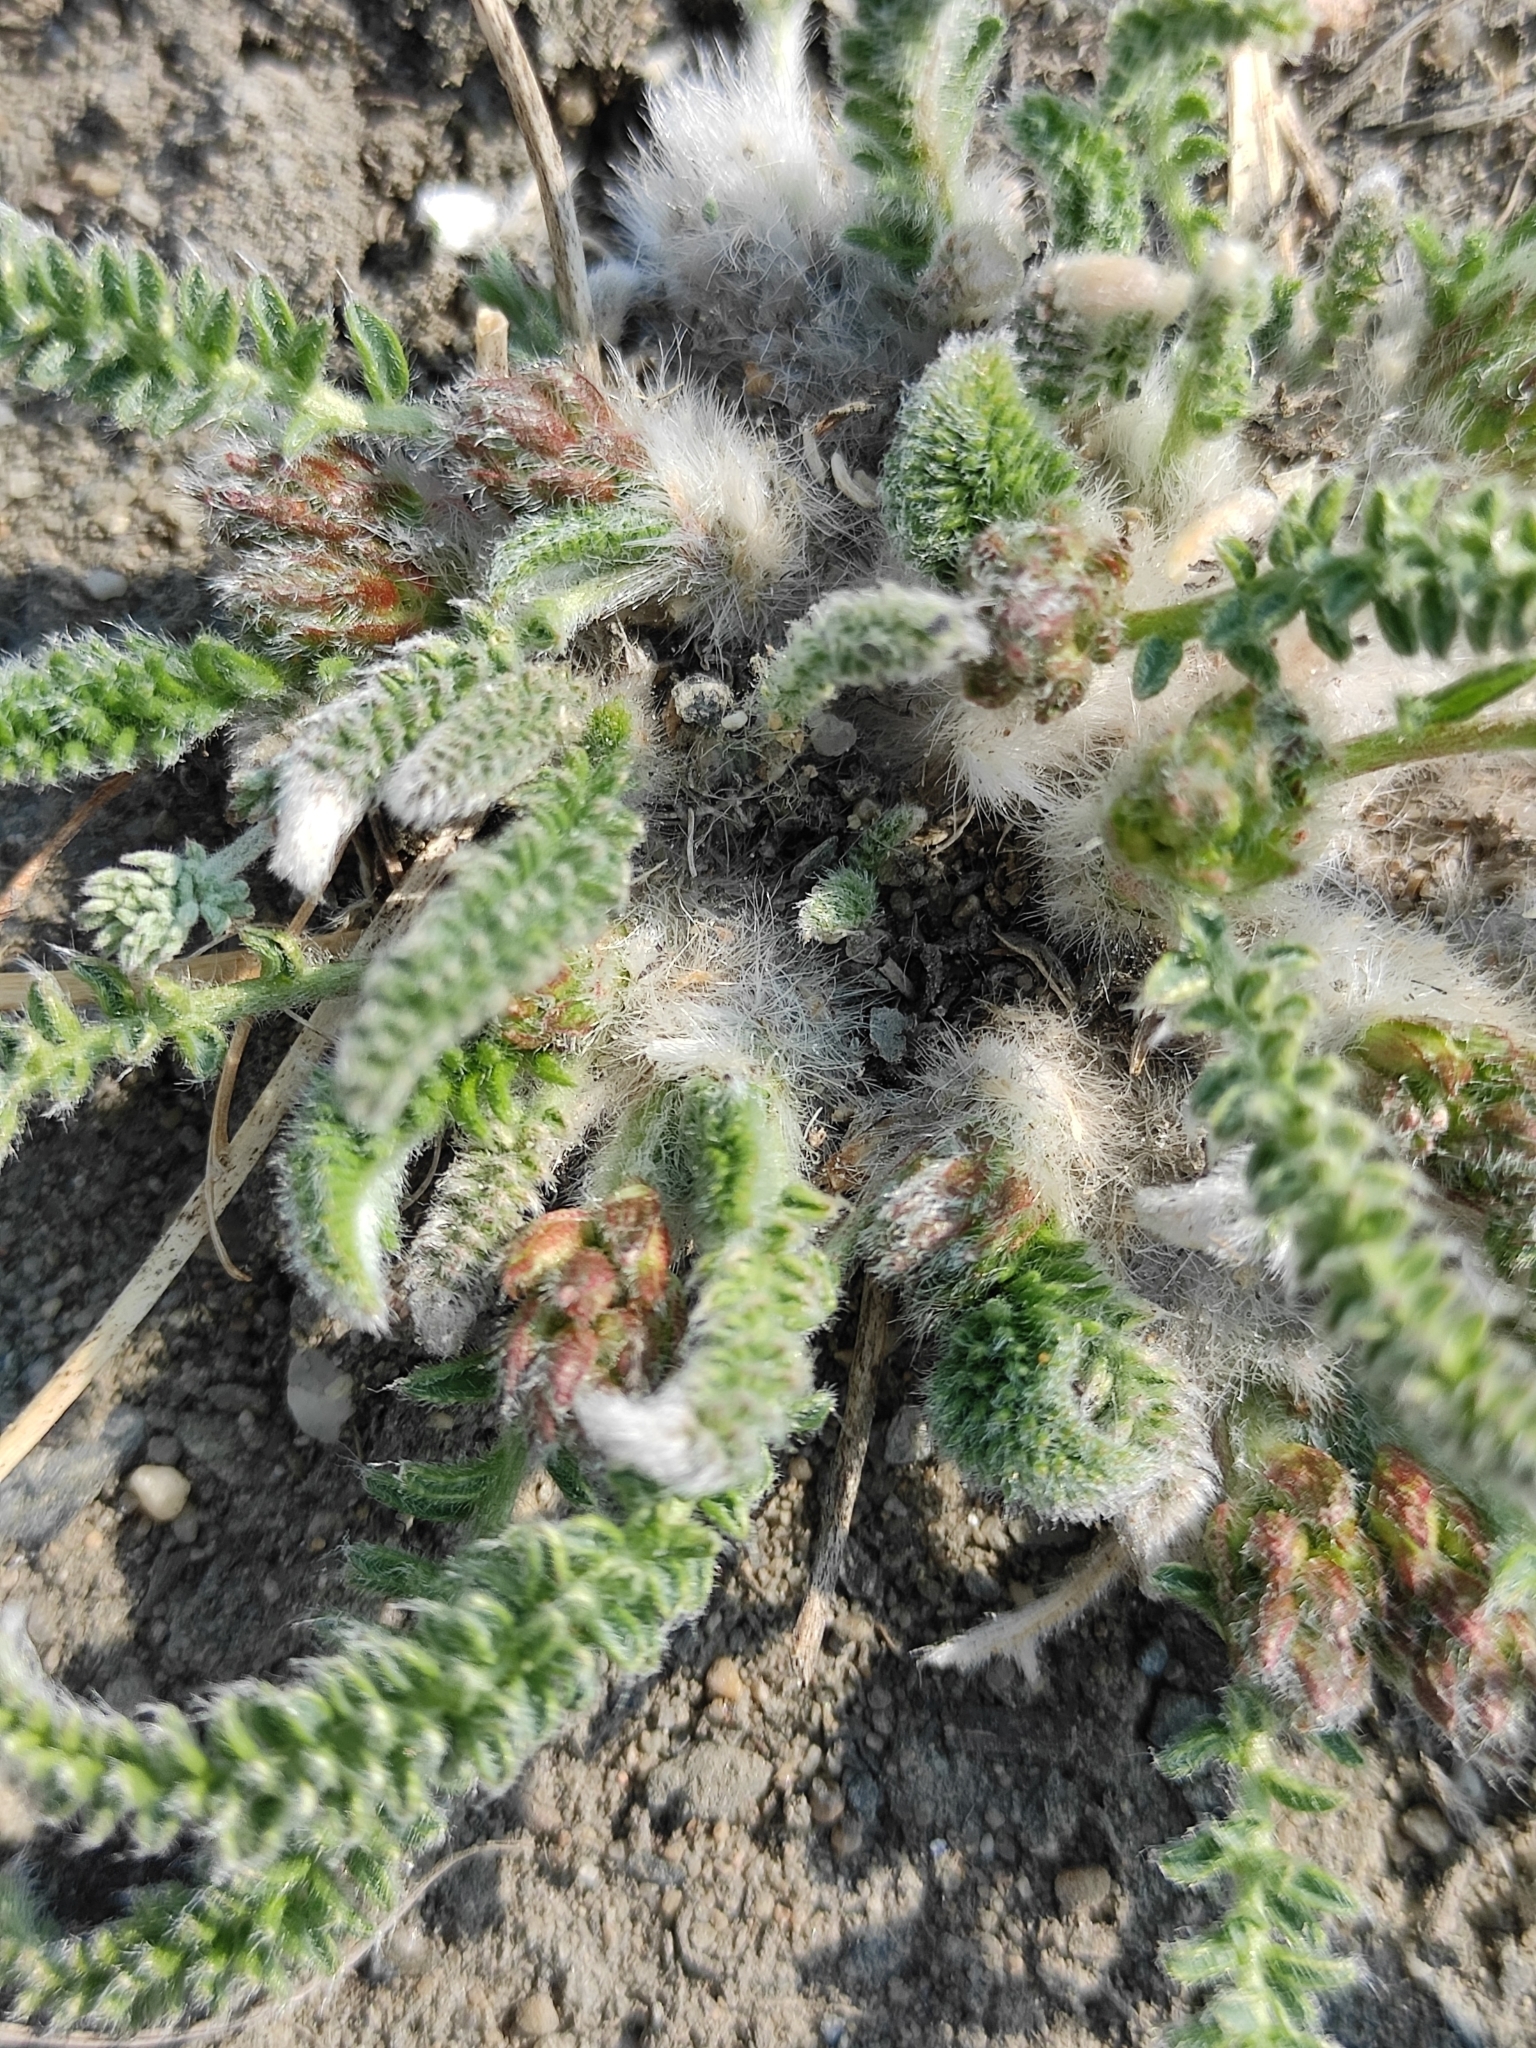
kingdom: Plantae
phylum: Tracheophyta
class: Magnoliopsida
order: Fabales
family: Fabaceae
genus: Oxytropis
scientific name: Oxytropis myriophylla
